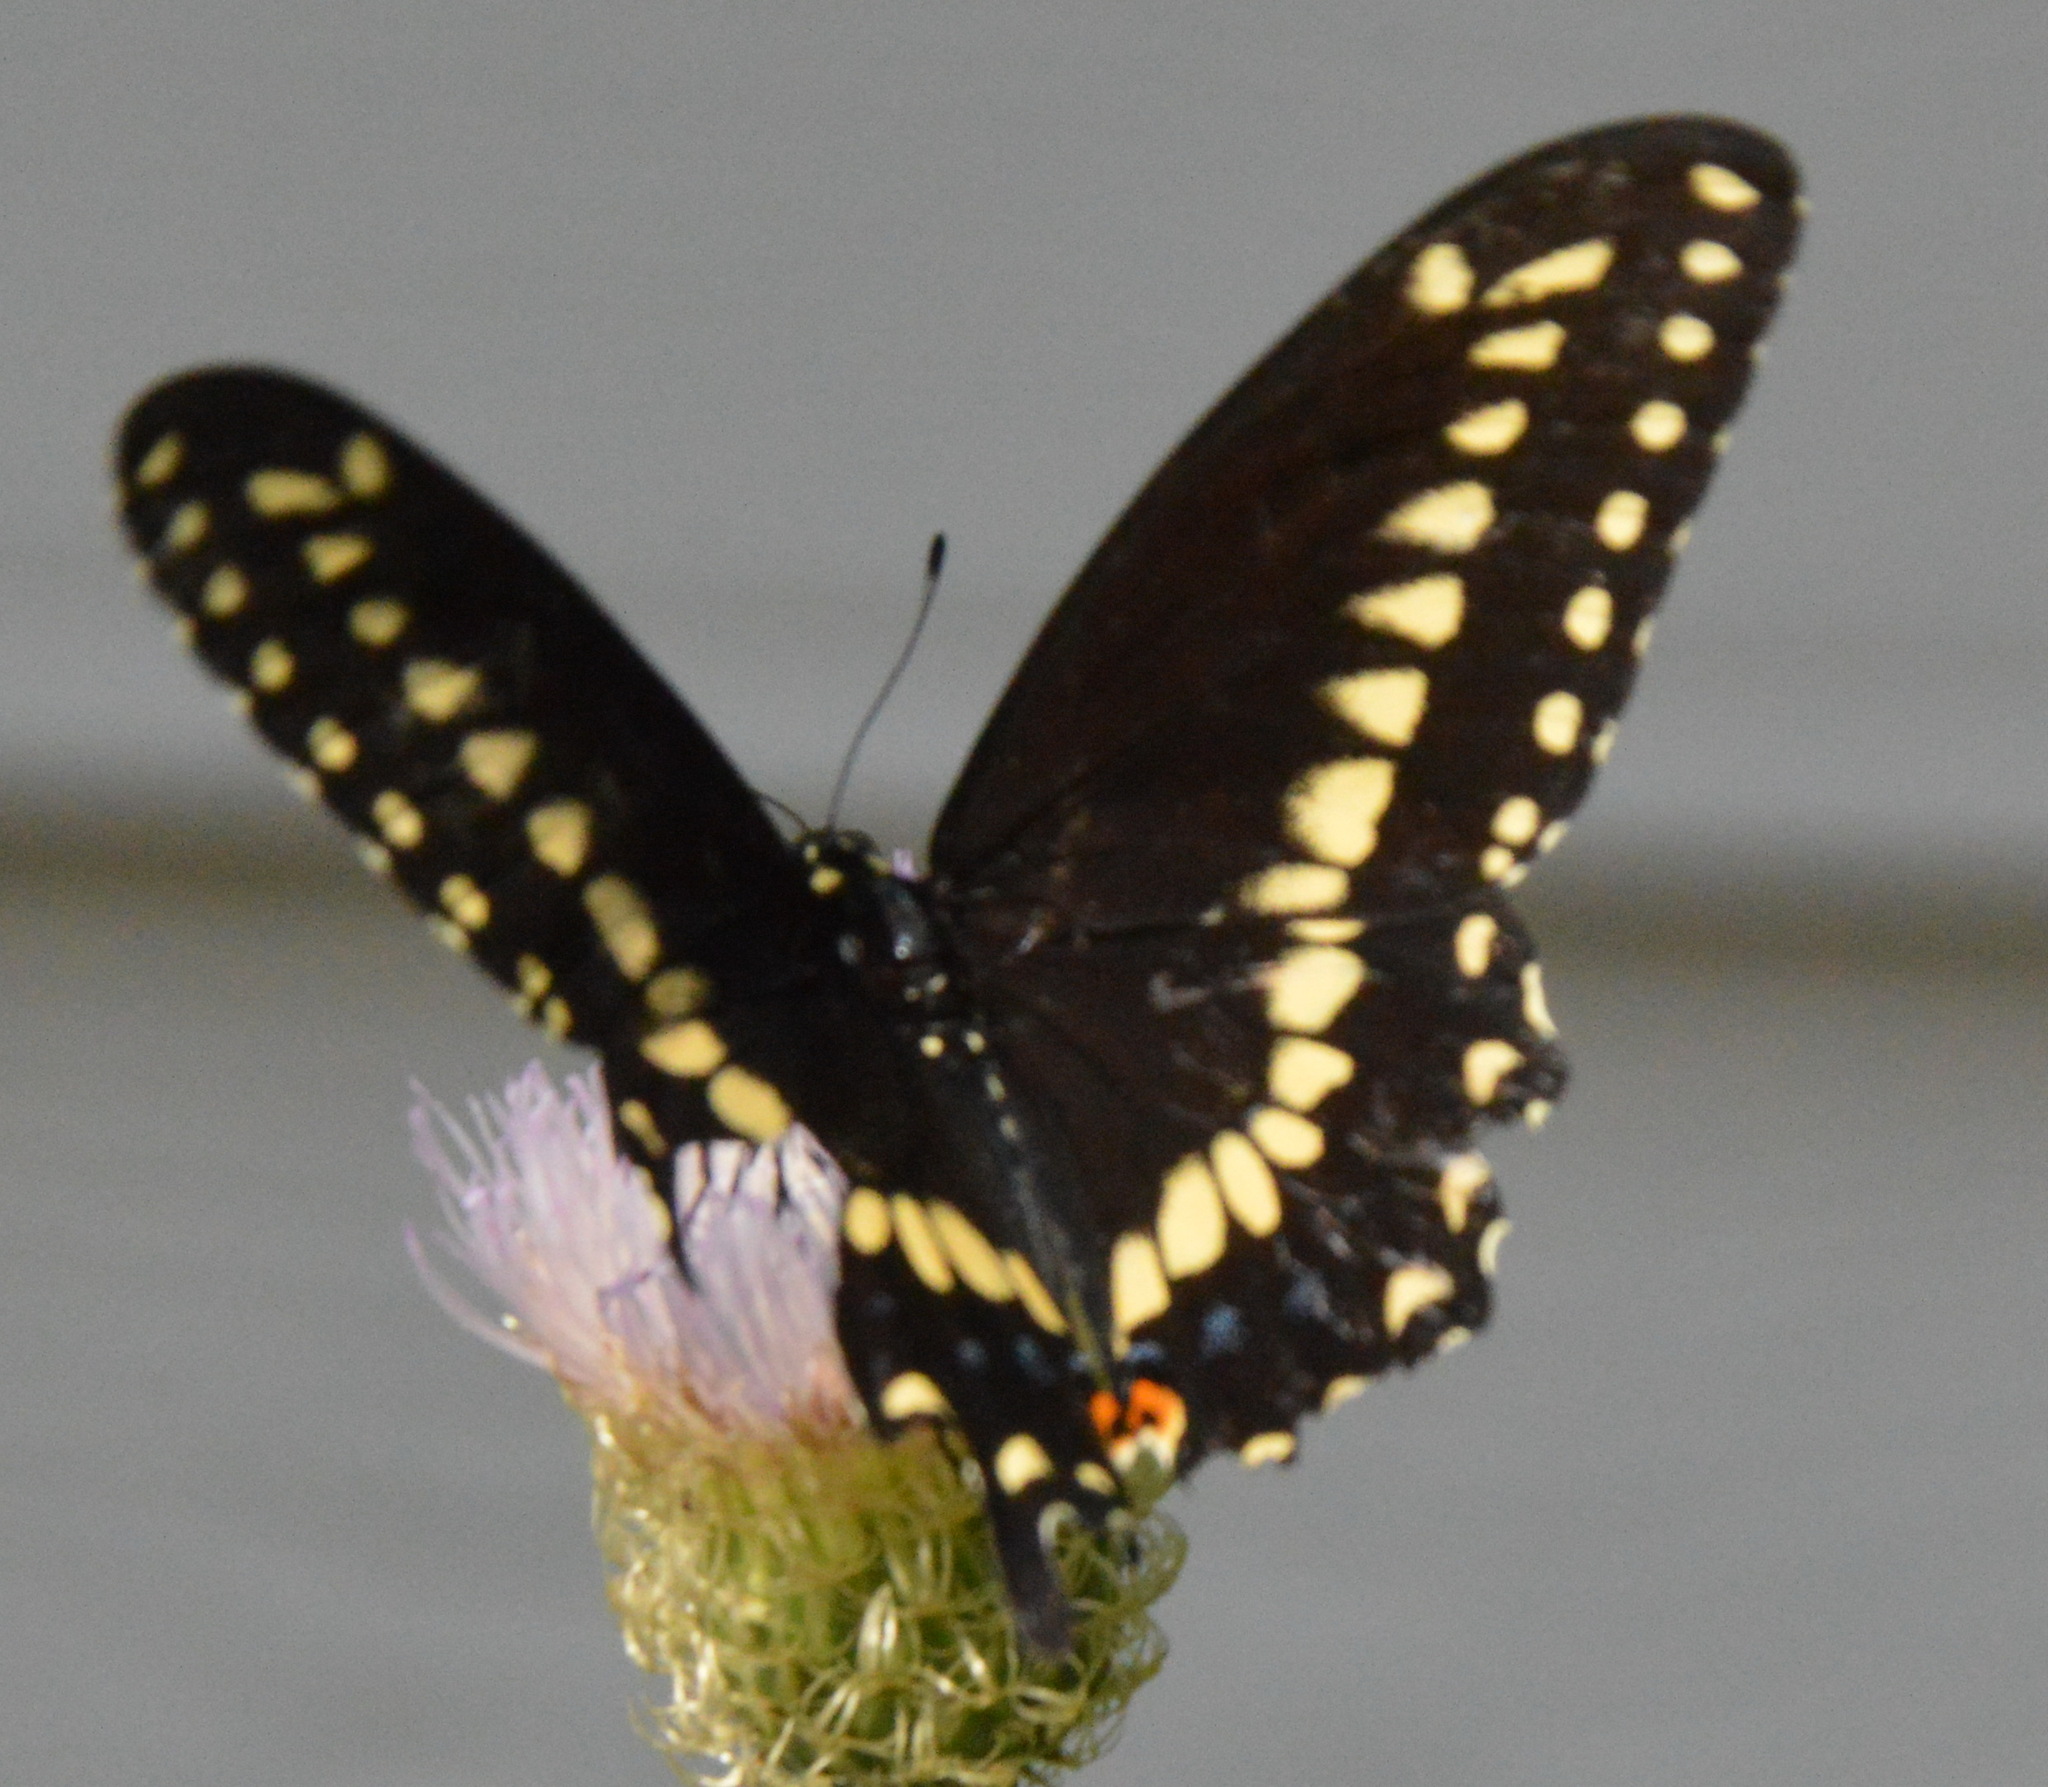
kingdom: Animalia
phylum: Arthropoda
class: Insecta
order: Lepidoptera
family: Papilionidae
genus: Papilio
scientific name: Papilio polyxenes
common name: Black swallowtail
